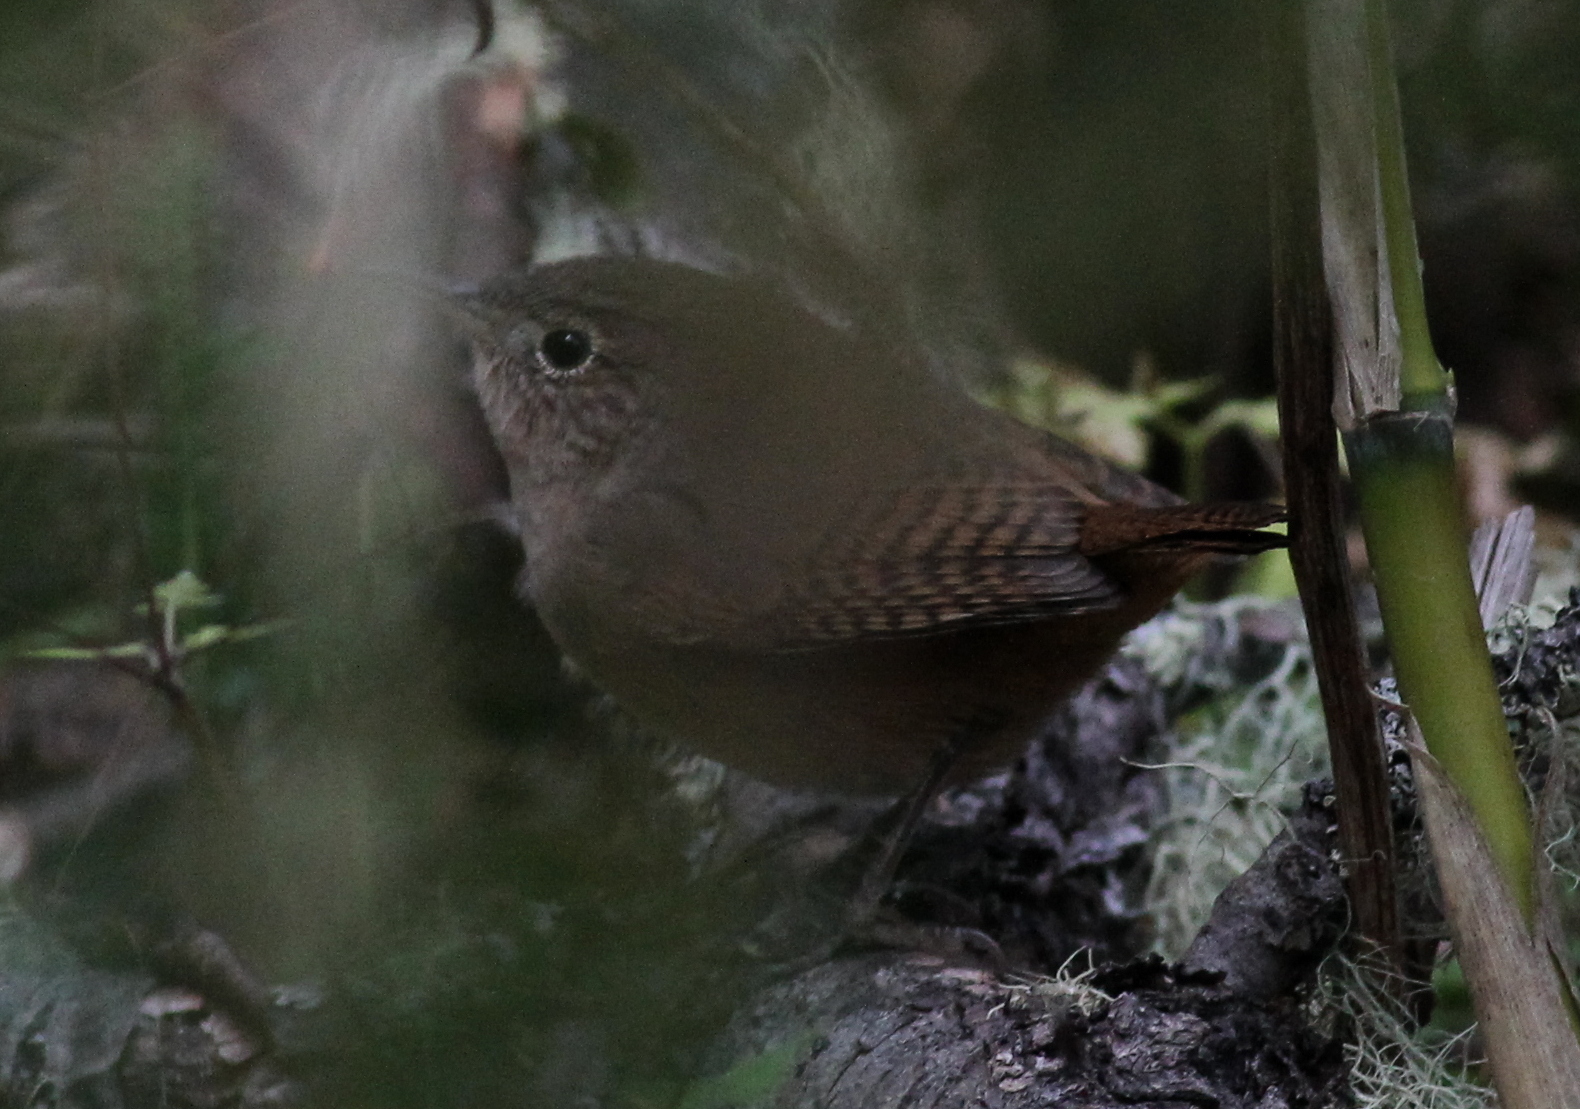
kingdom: Animalia
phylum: Chordata
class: Aves
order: Passeriformes
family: Troglodytidae
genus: Troglodytes
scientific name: Troglodytes aedon
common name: House wren
